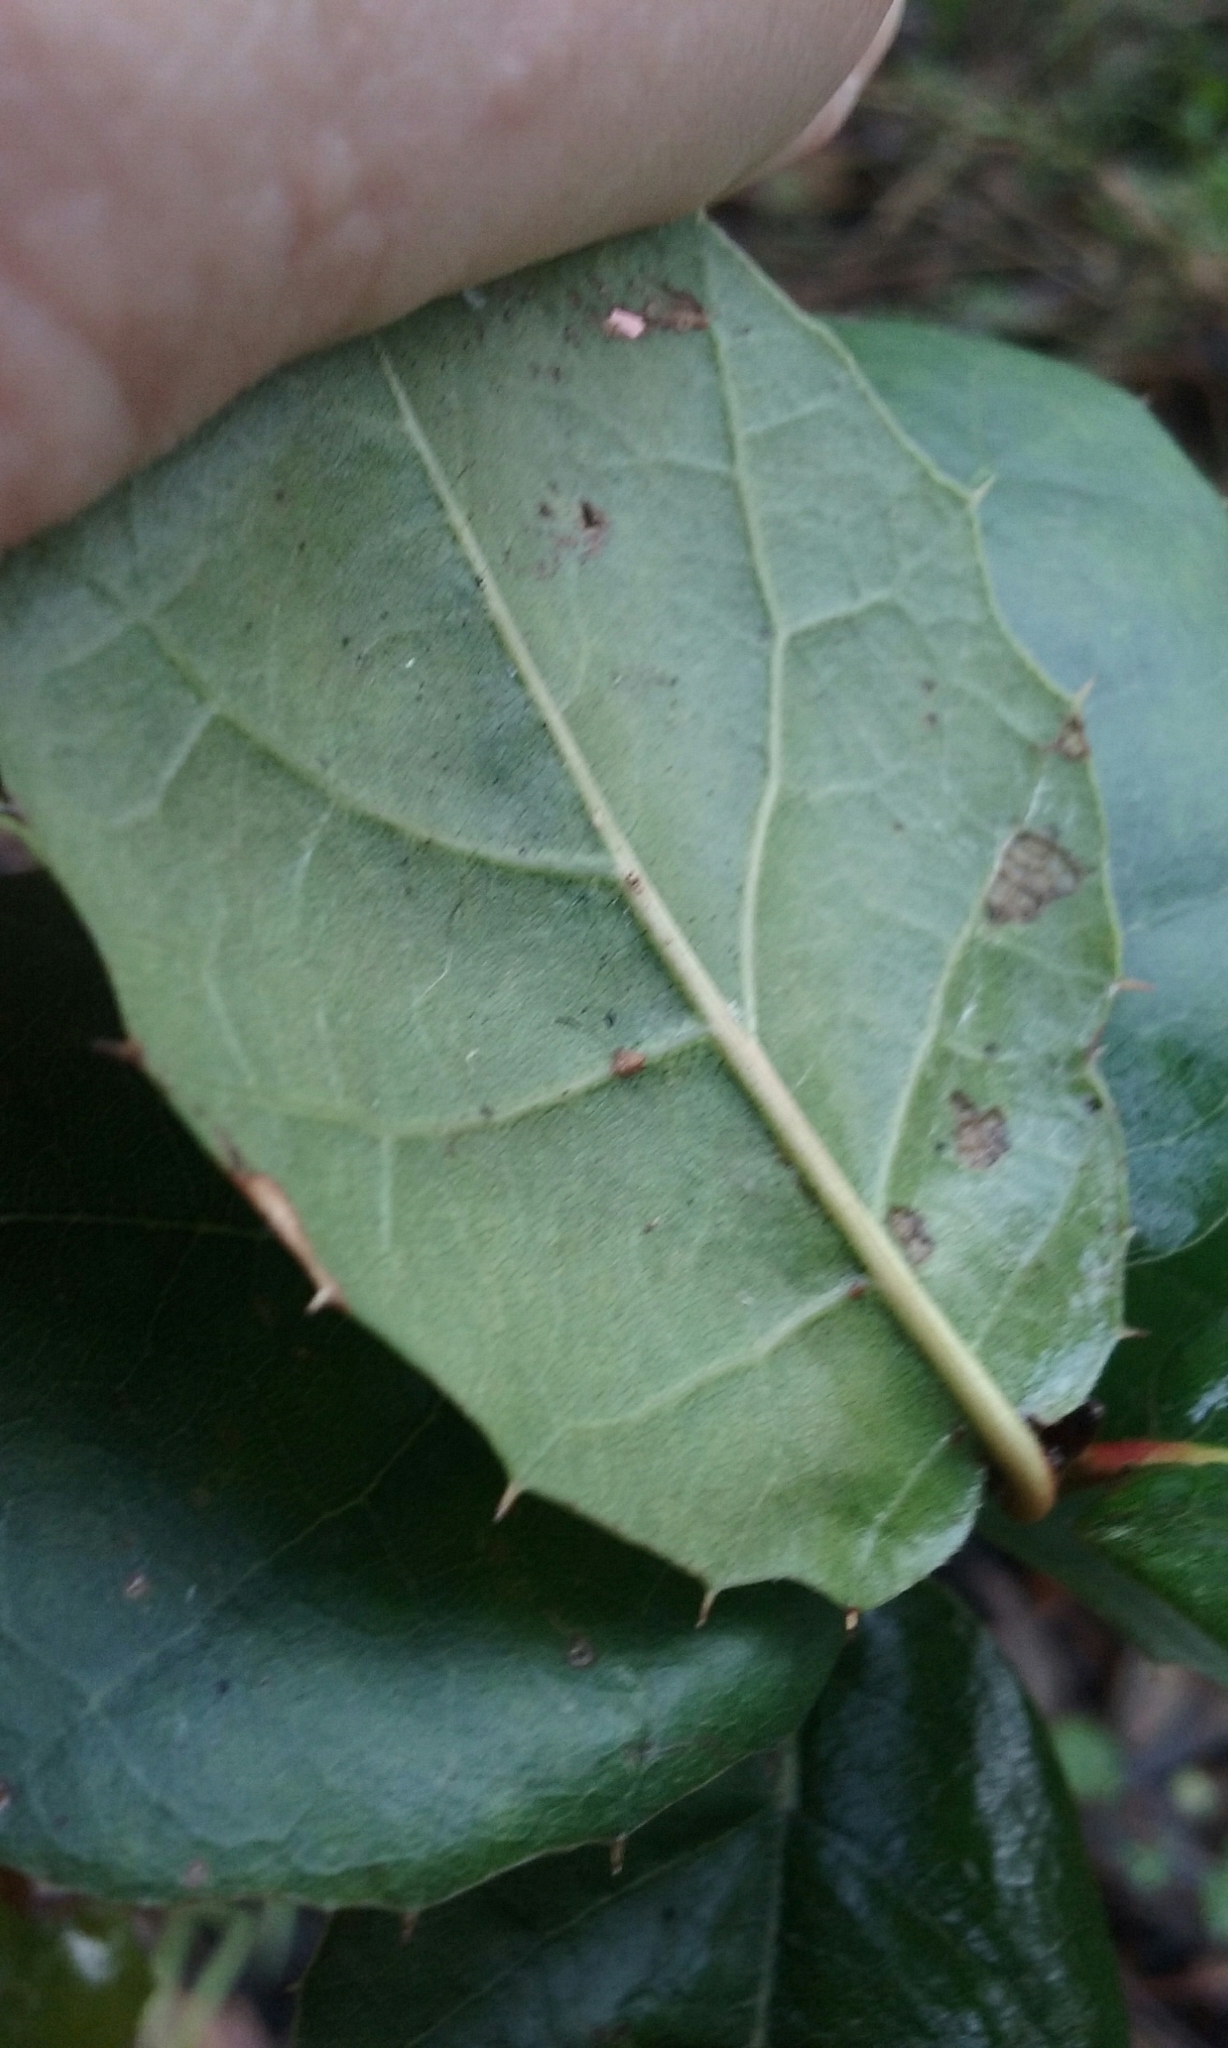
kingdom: Plantae
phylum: Tracheophyta
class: Magnoliopsida
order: Fagales
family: Fagaceae
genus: Quercus
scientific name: Quercus agrifolia
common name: California live oak
